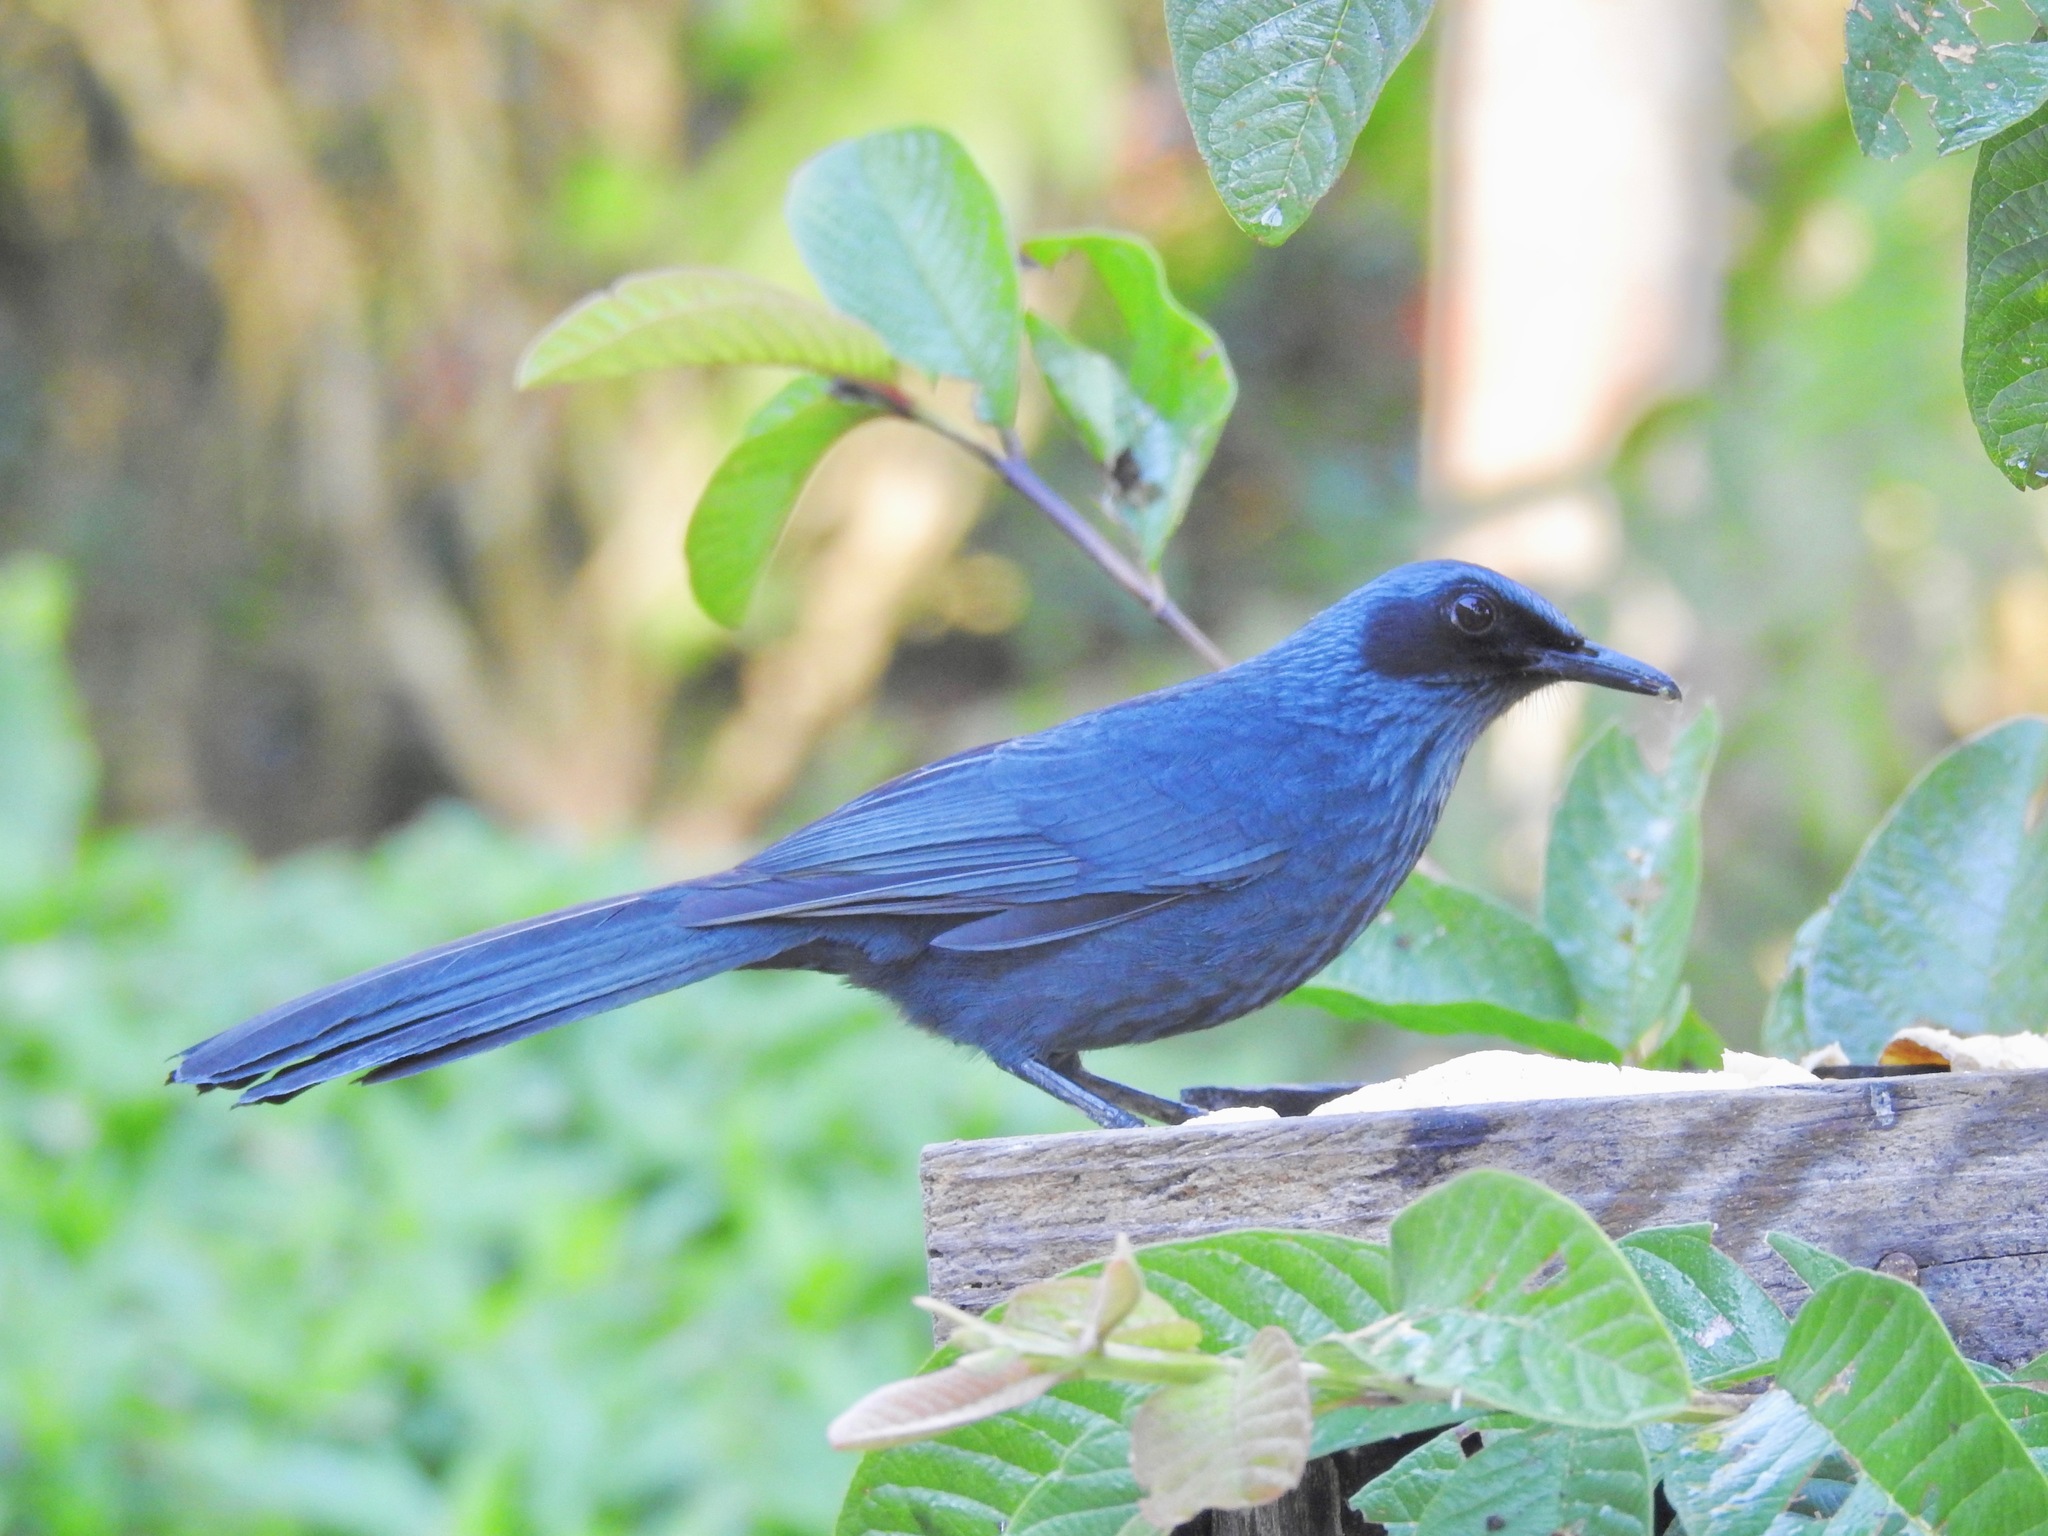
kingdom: Animalia
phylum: Chordata
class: Aves
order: Passeriformes
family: Mimidae
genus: Melanotis
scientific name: Melanotis caerulescens
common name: Blue mockingbird
